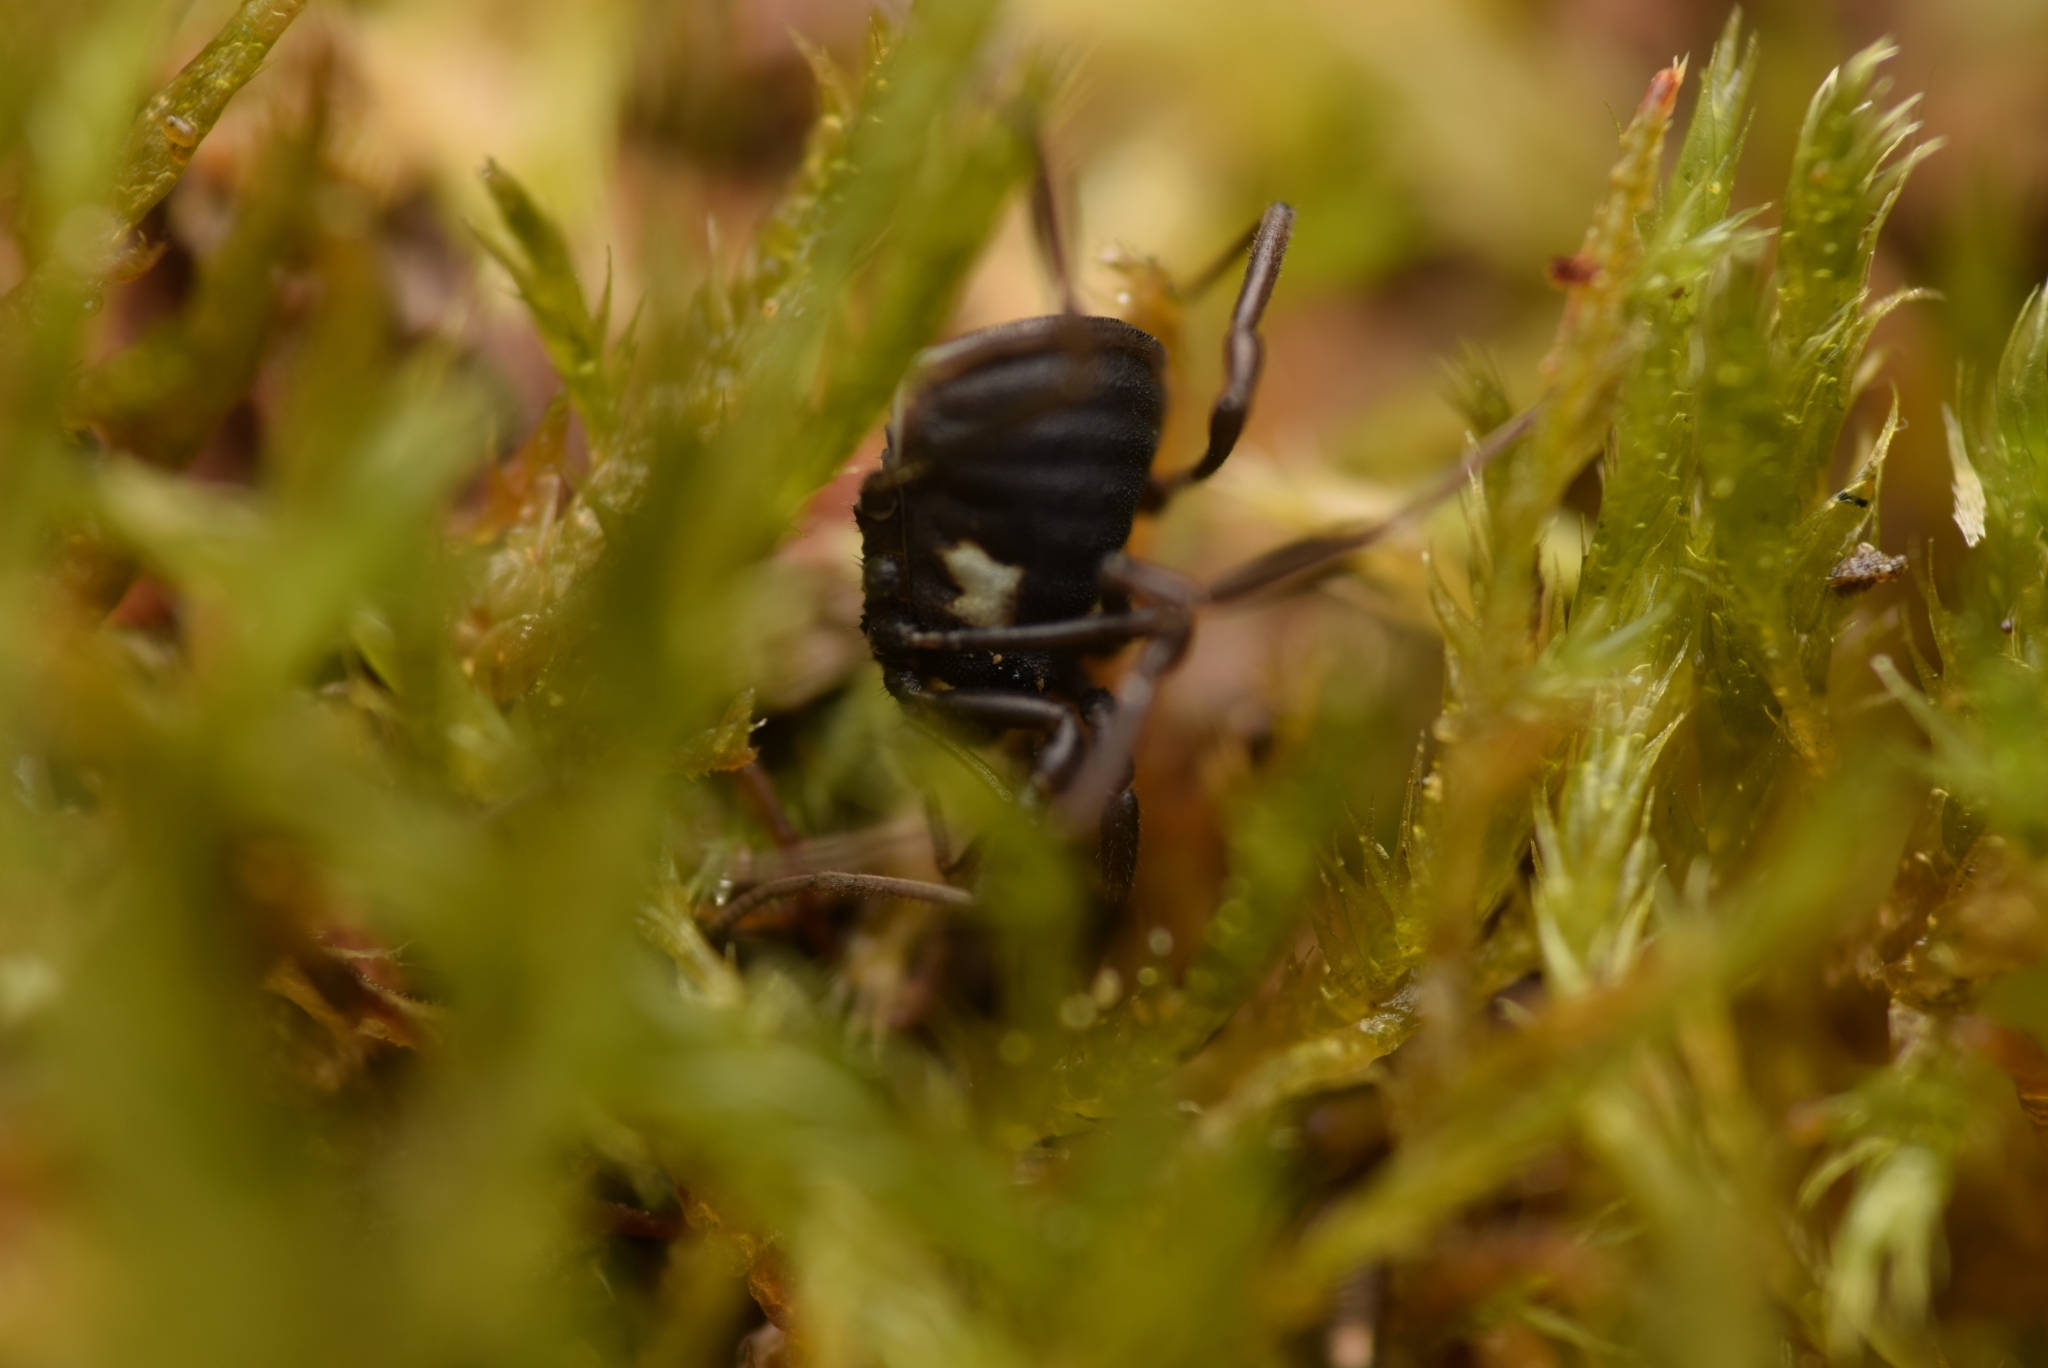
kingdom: Animalia
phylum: Arthropoda
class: Arachnida
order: Opiliones
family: Nemastomatidae
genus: Nemastoma
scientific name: Nemastoma bimaculatum
